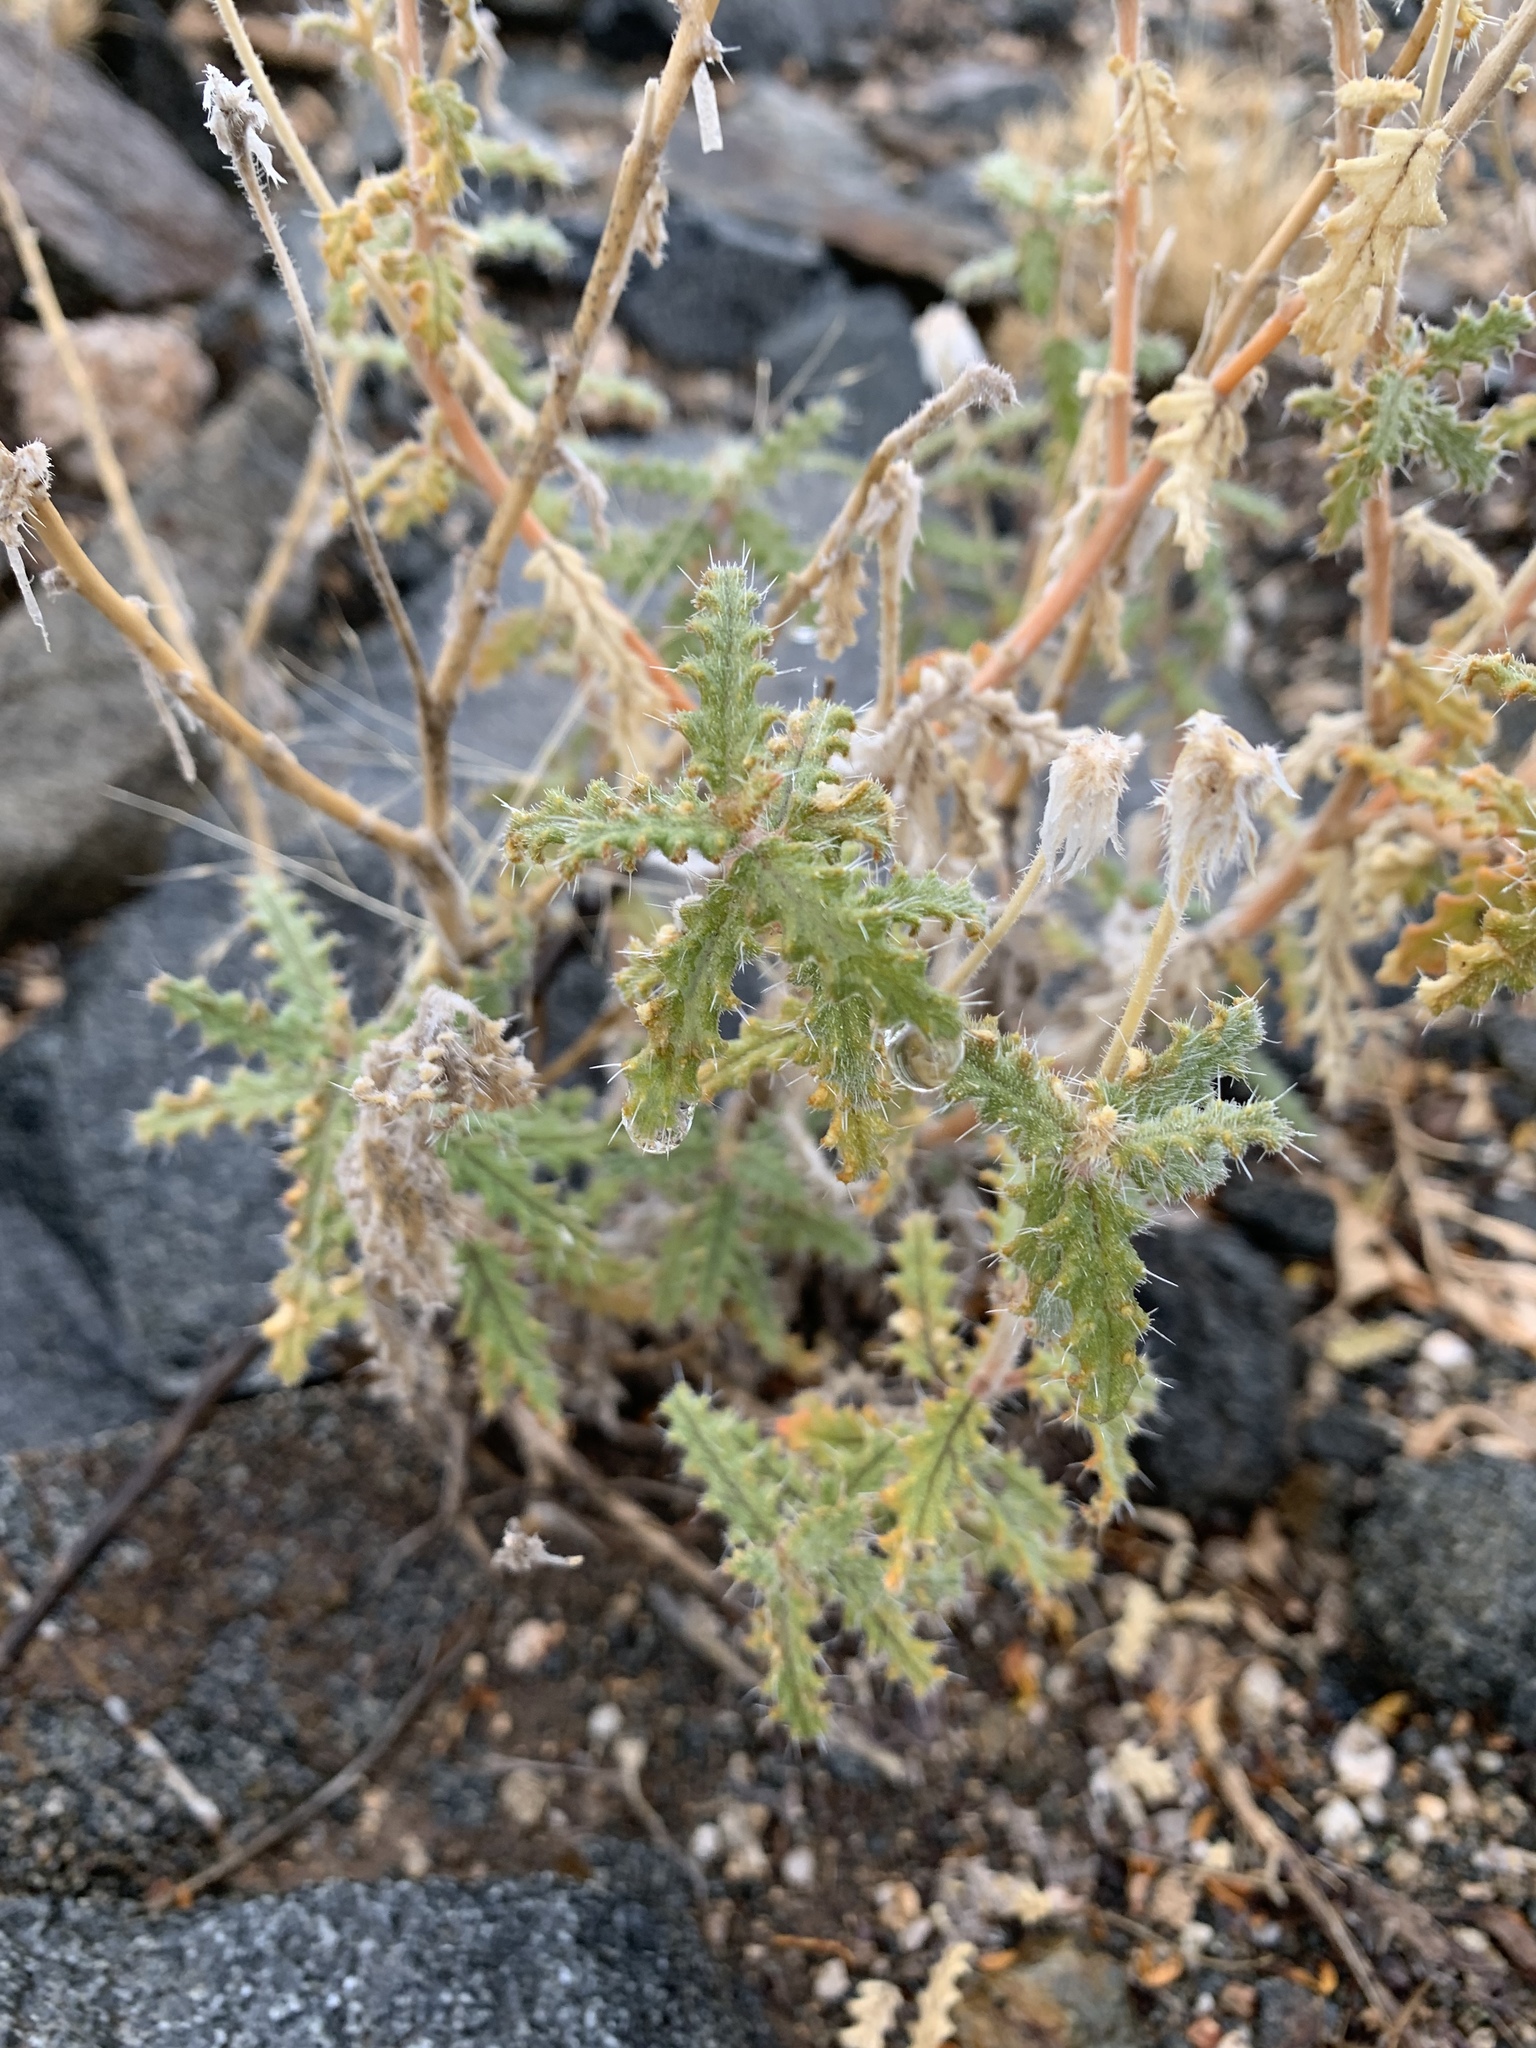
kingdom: Plantae
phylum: Tracheophyta
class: Magnoliopsida
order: Cornales
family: Loasaceae
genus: Cevallia
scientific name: Cevallia sinuata
